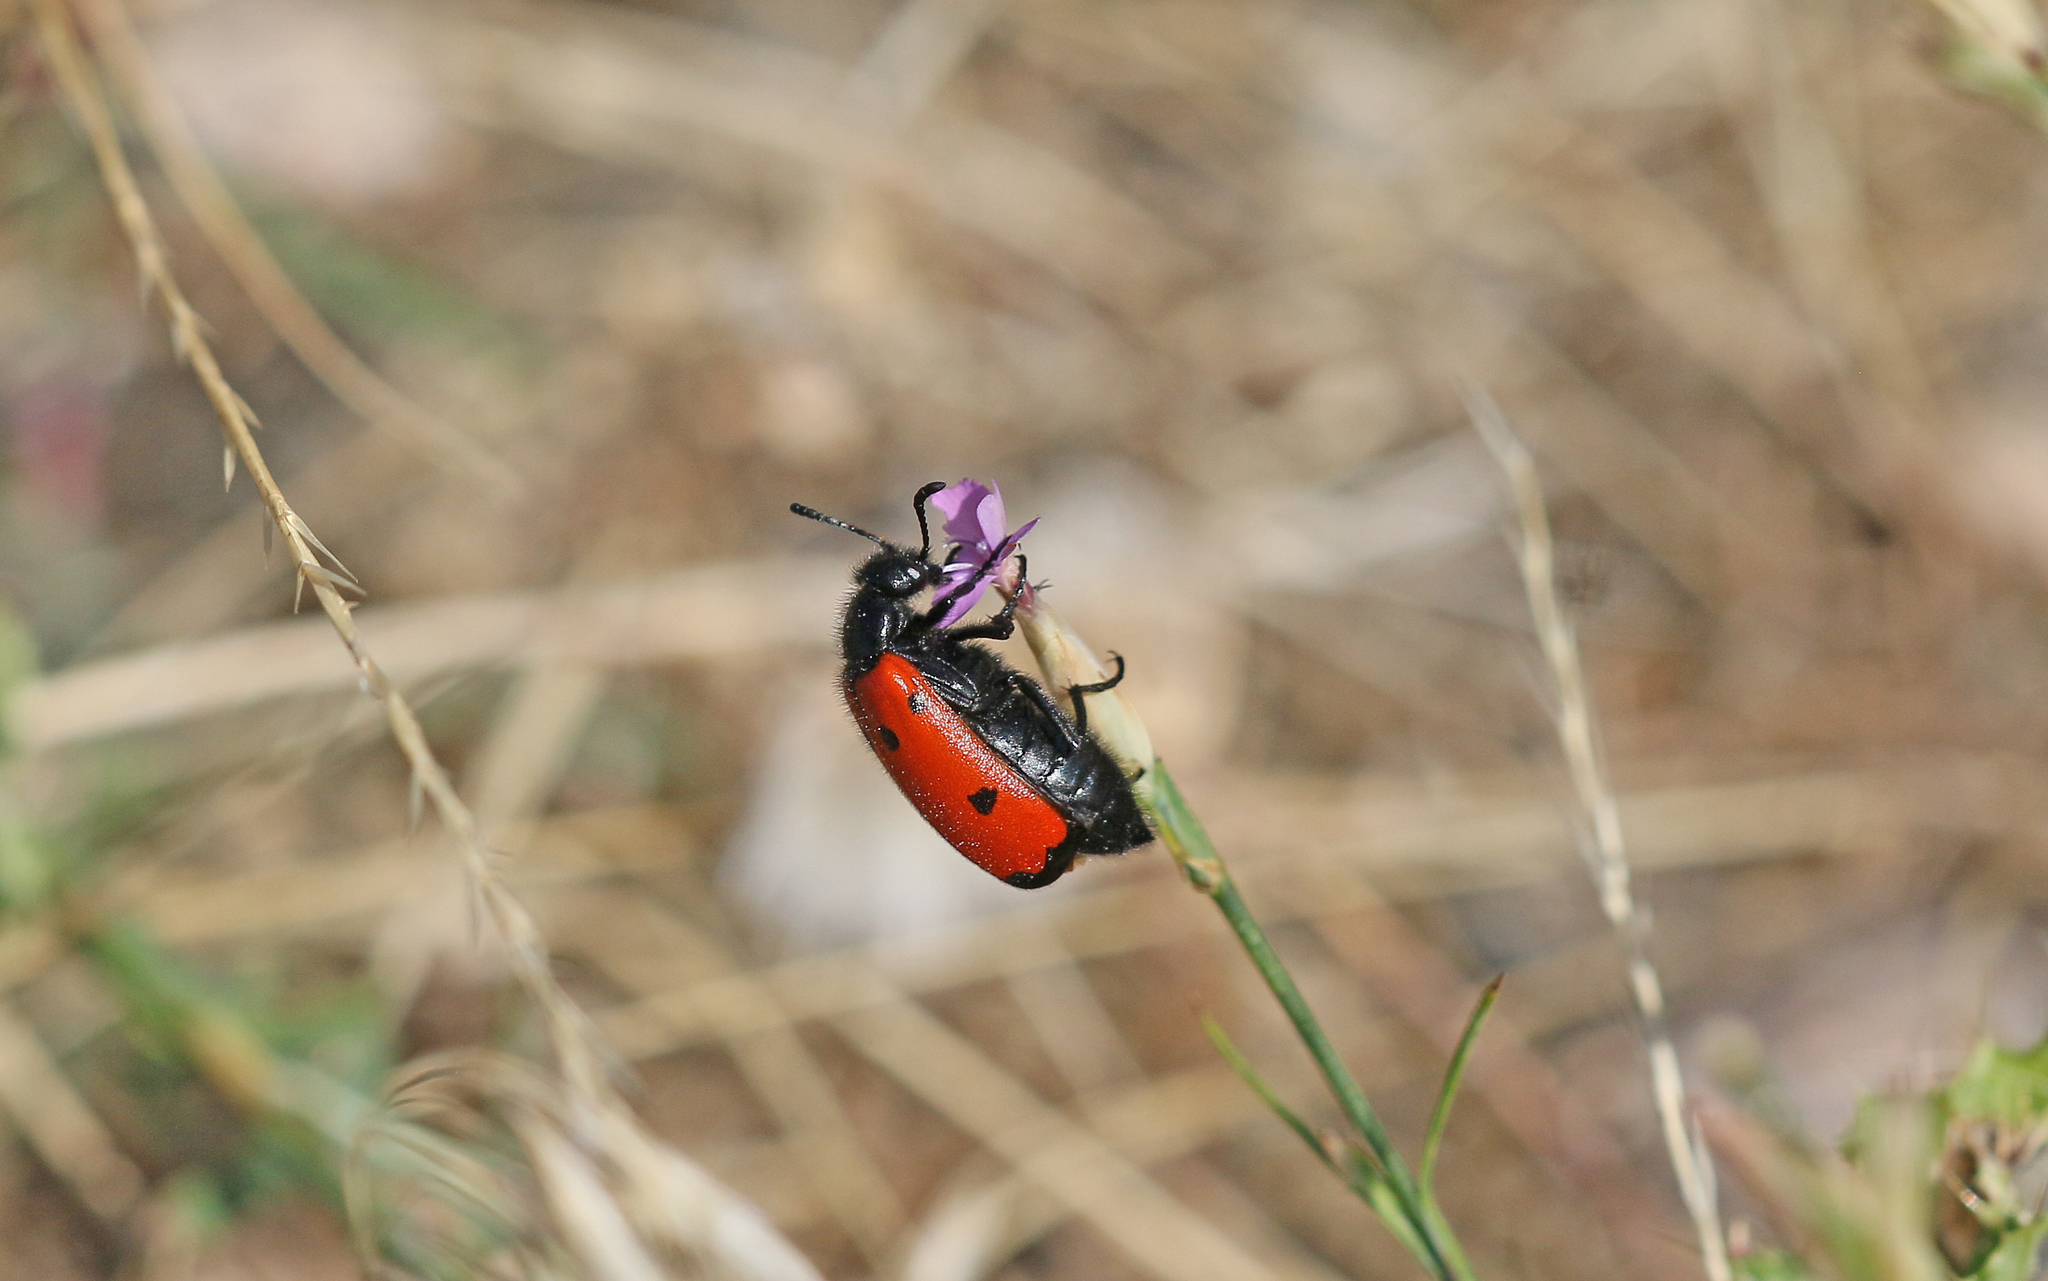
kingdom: Animalia
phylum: Arthropoda
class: Insecta
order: Coleoptera
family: Meloidae
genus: Mylabris
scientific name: Mylabris quadripunctata
